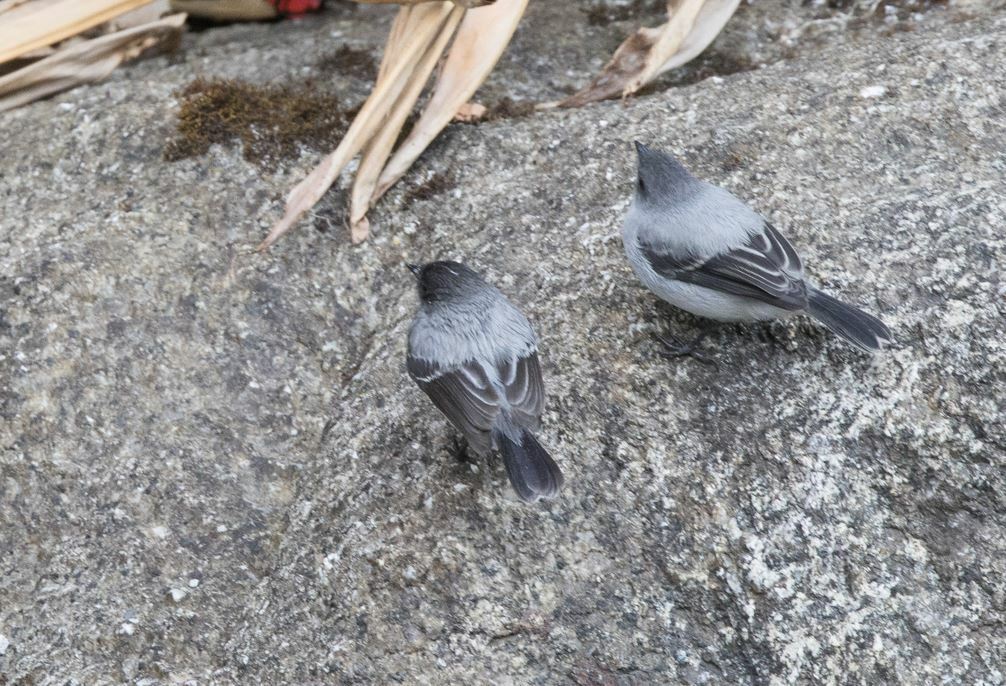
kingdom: Animalia
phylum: Chordata
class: Aves
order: Passeriformes
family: Tyrannidae
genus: Serpophaga
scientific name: Serpophaga cinerea
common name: Torrent tyrannulet
